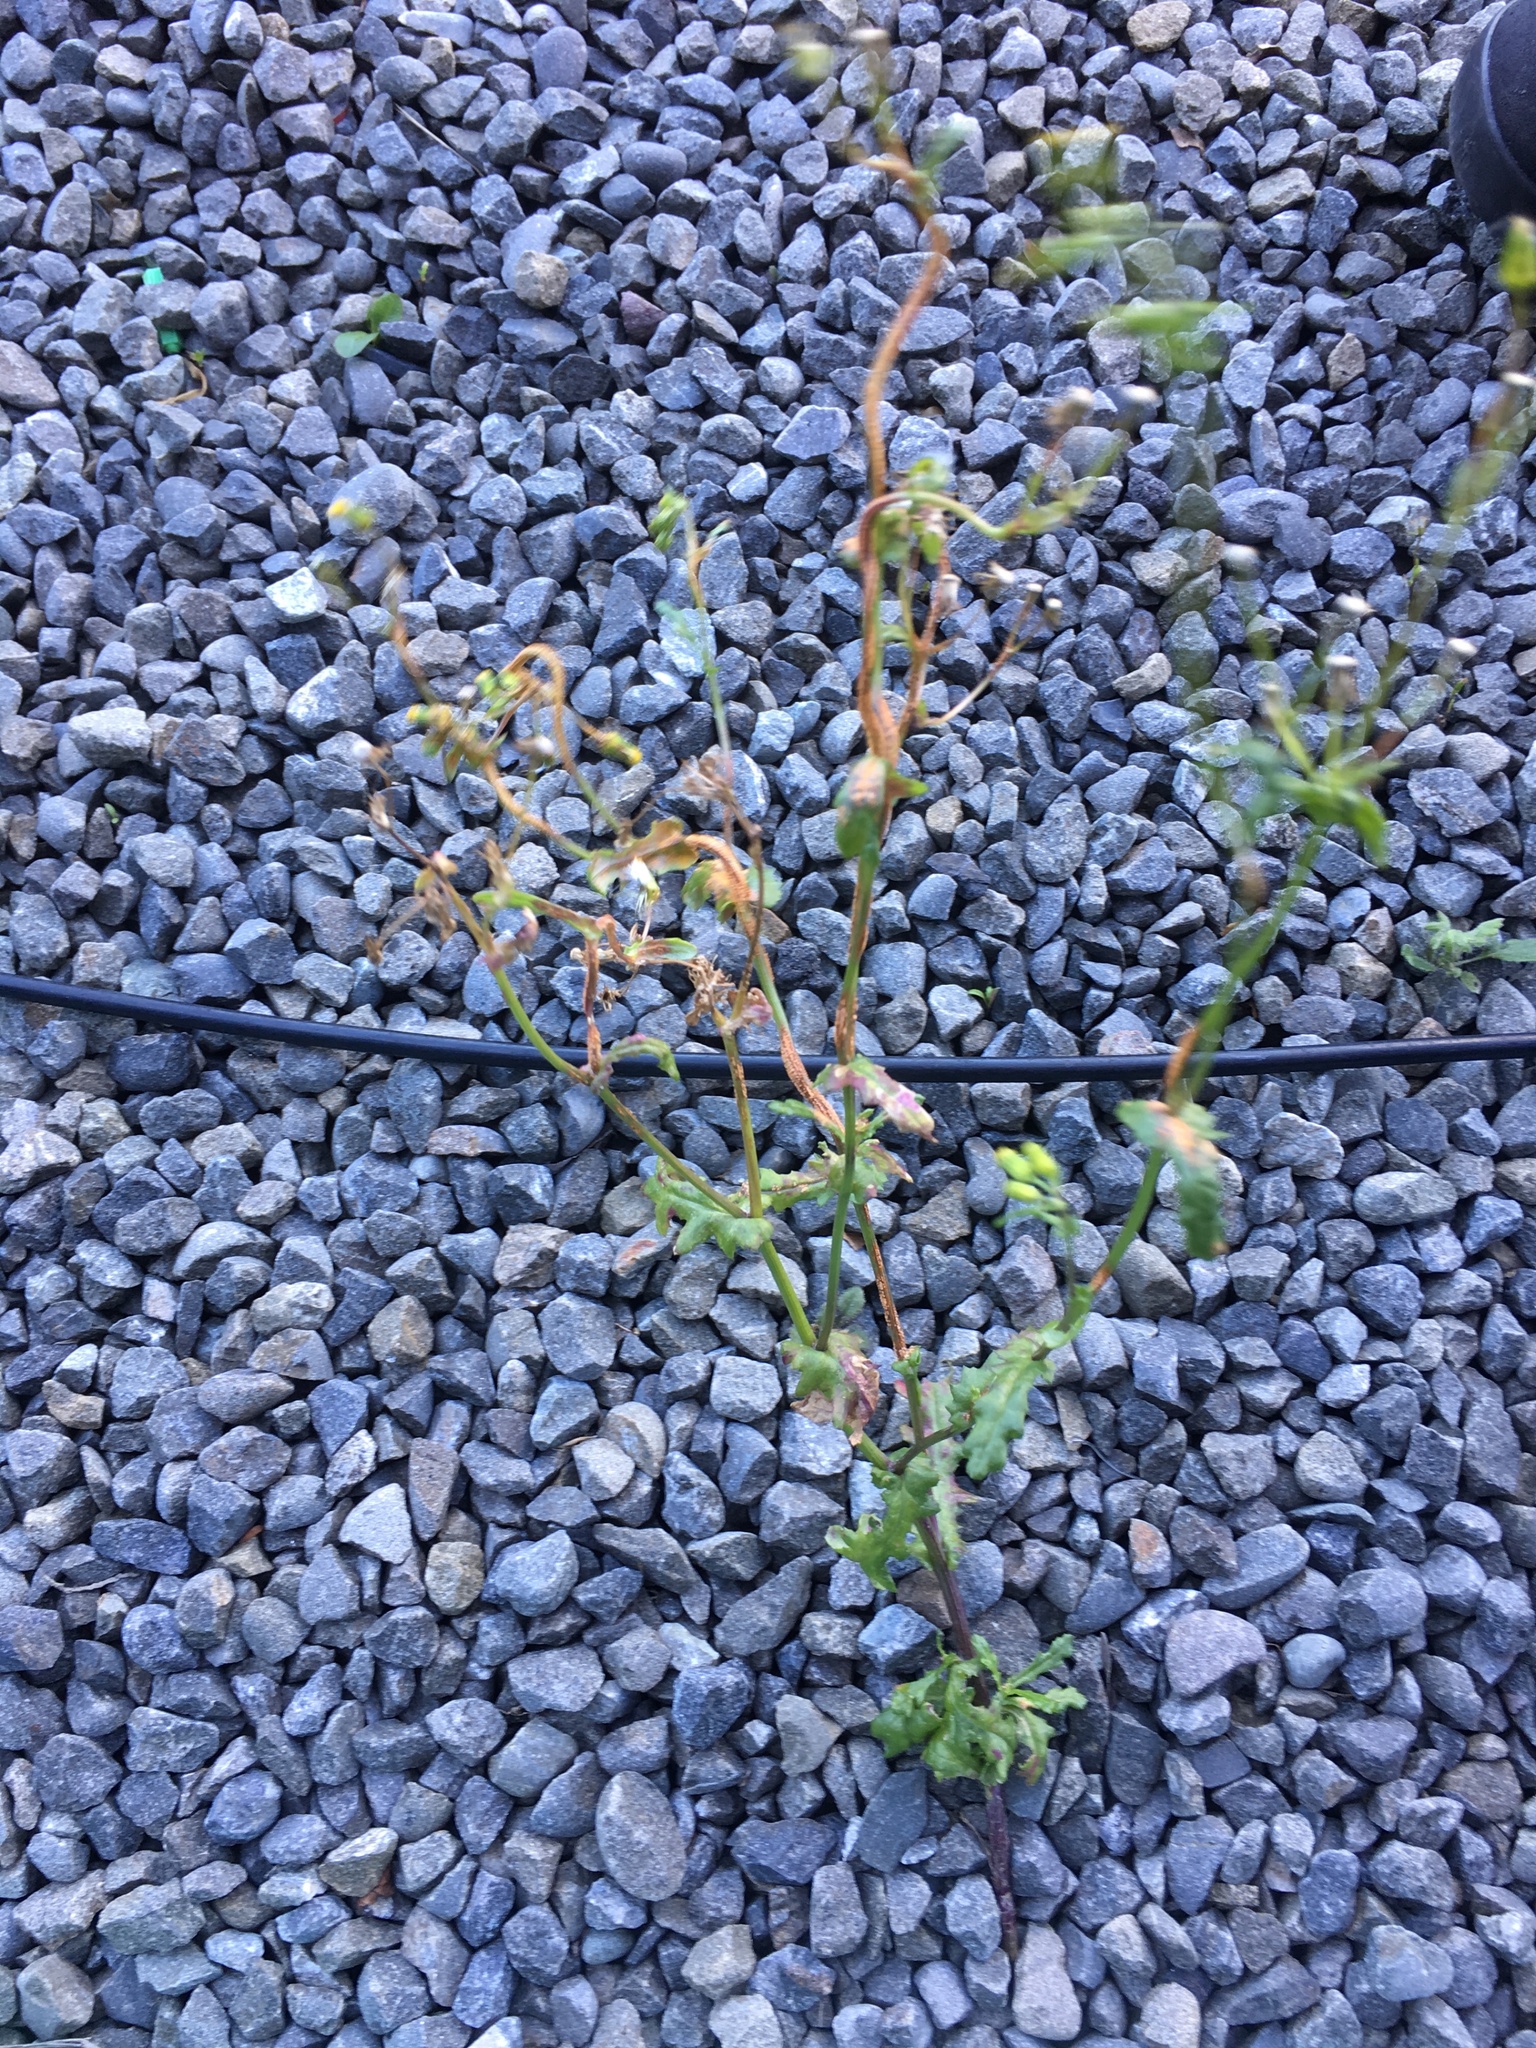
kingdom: Fungi
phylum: Basidiomycota
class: Pucciniomycetes
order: Pucciniales
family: Pucciniaceae
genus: Puccinia
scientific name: Puccinia lagenophorae
